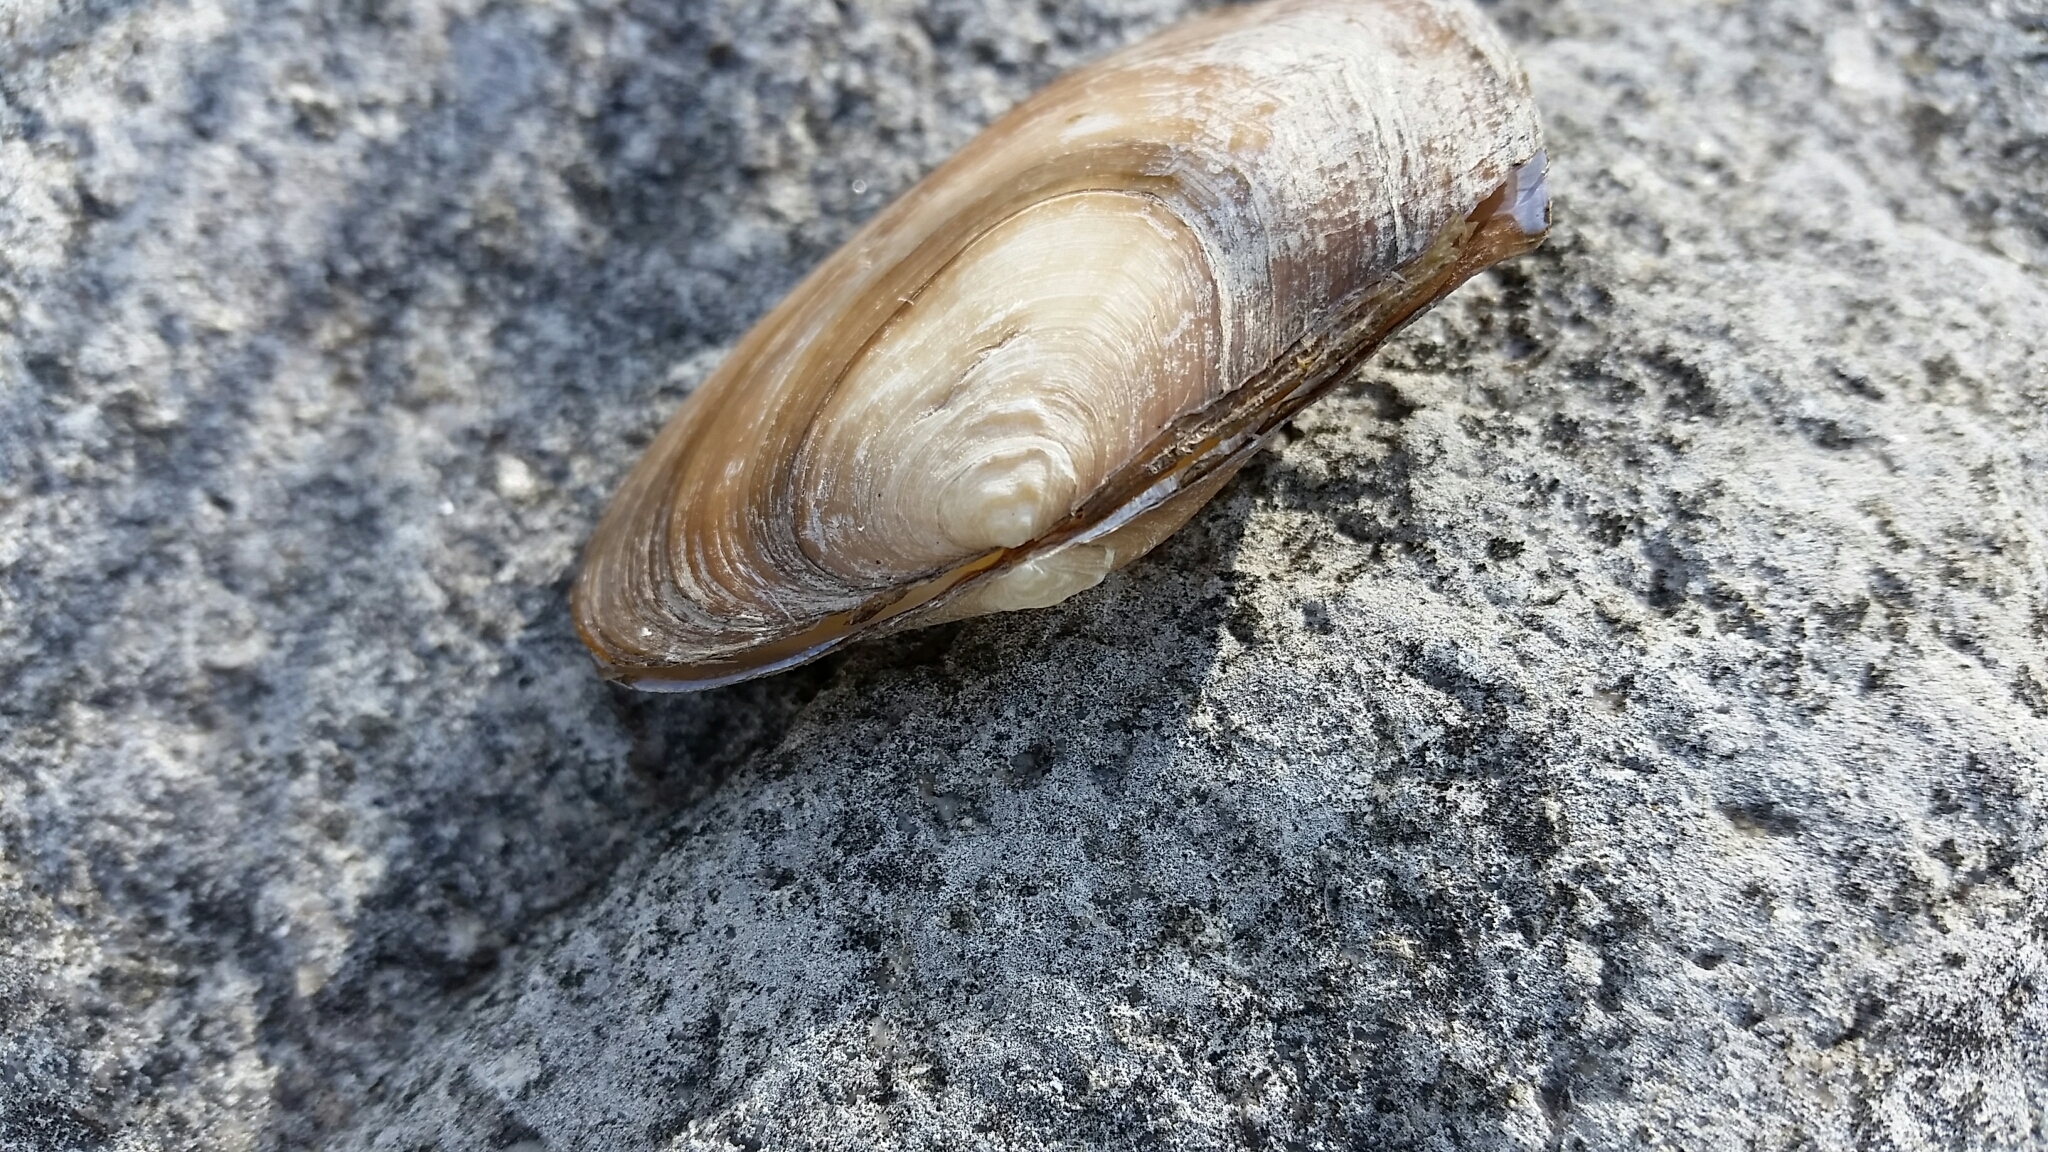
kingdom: Animalia
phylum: Mollusca
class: Bivalvia
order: Unionida
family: Unionidae
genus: Lasmigona
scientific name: Lasmigona complanata
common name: White heelsplitter
